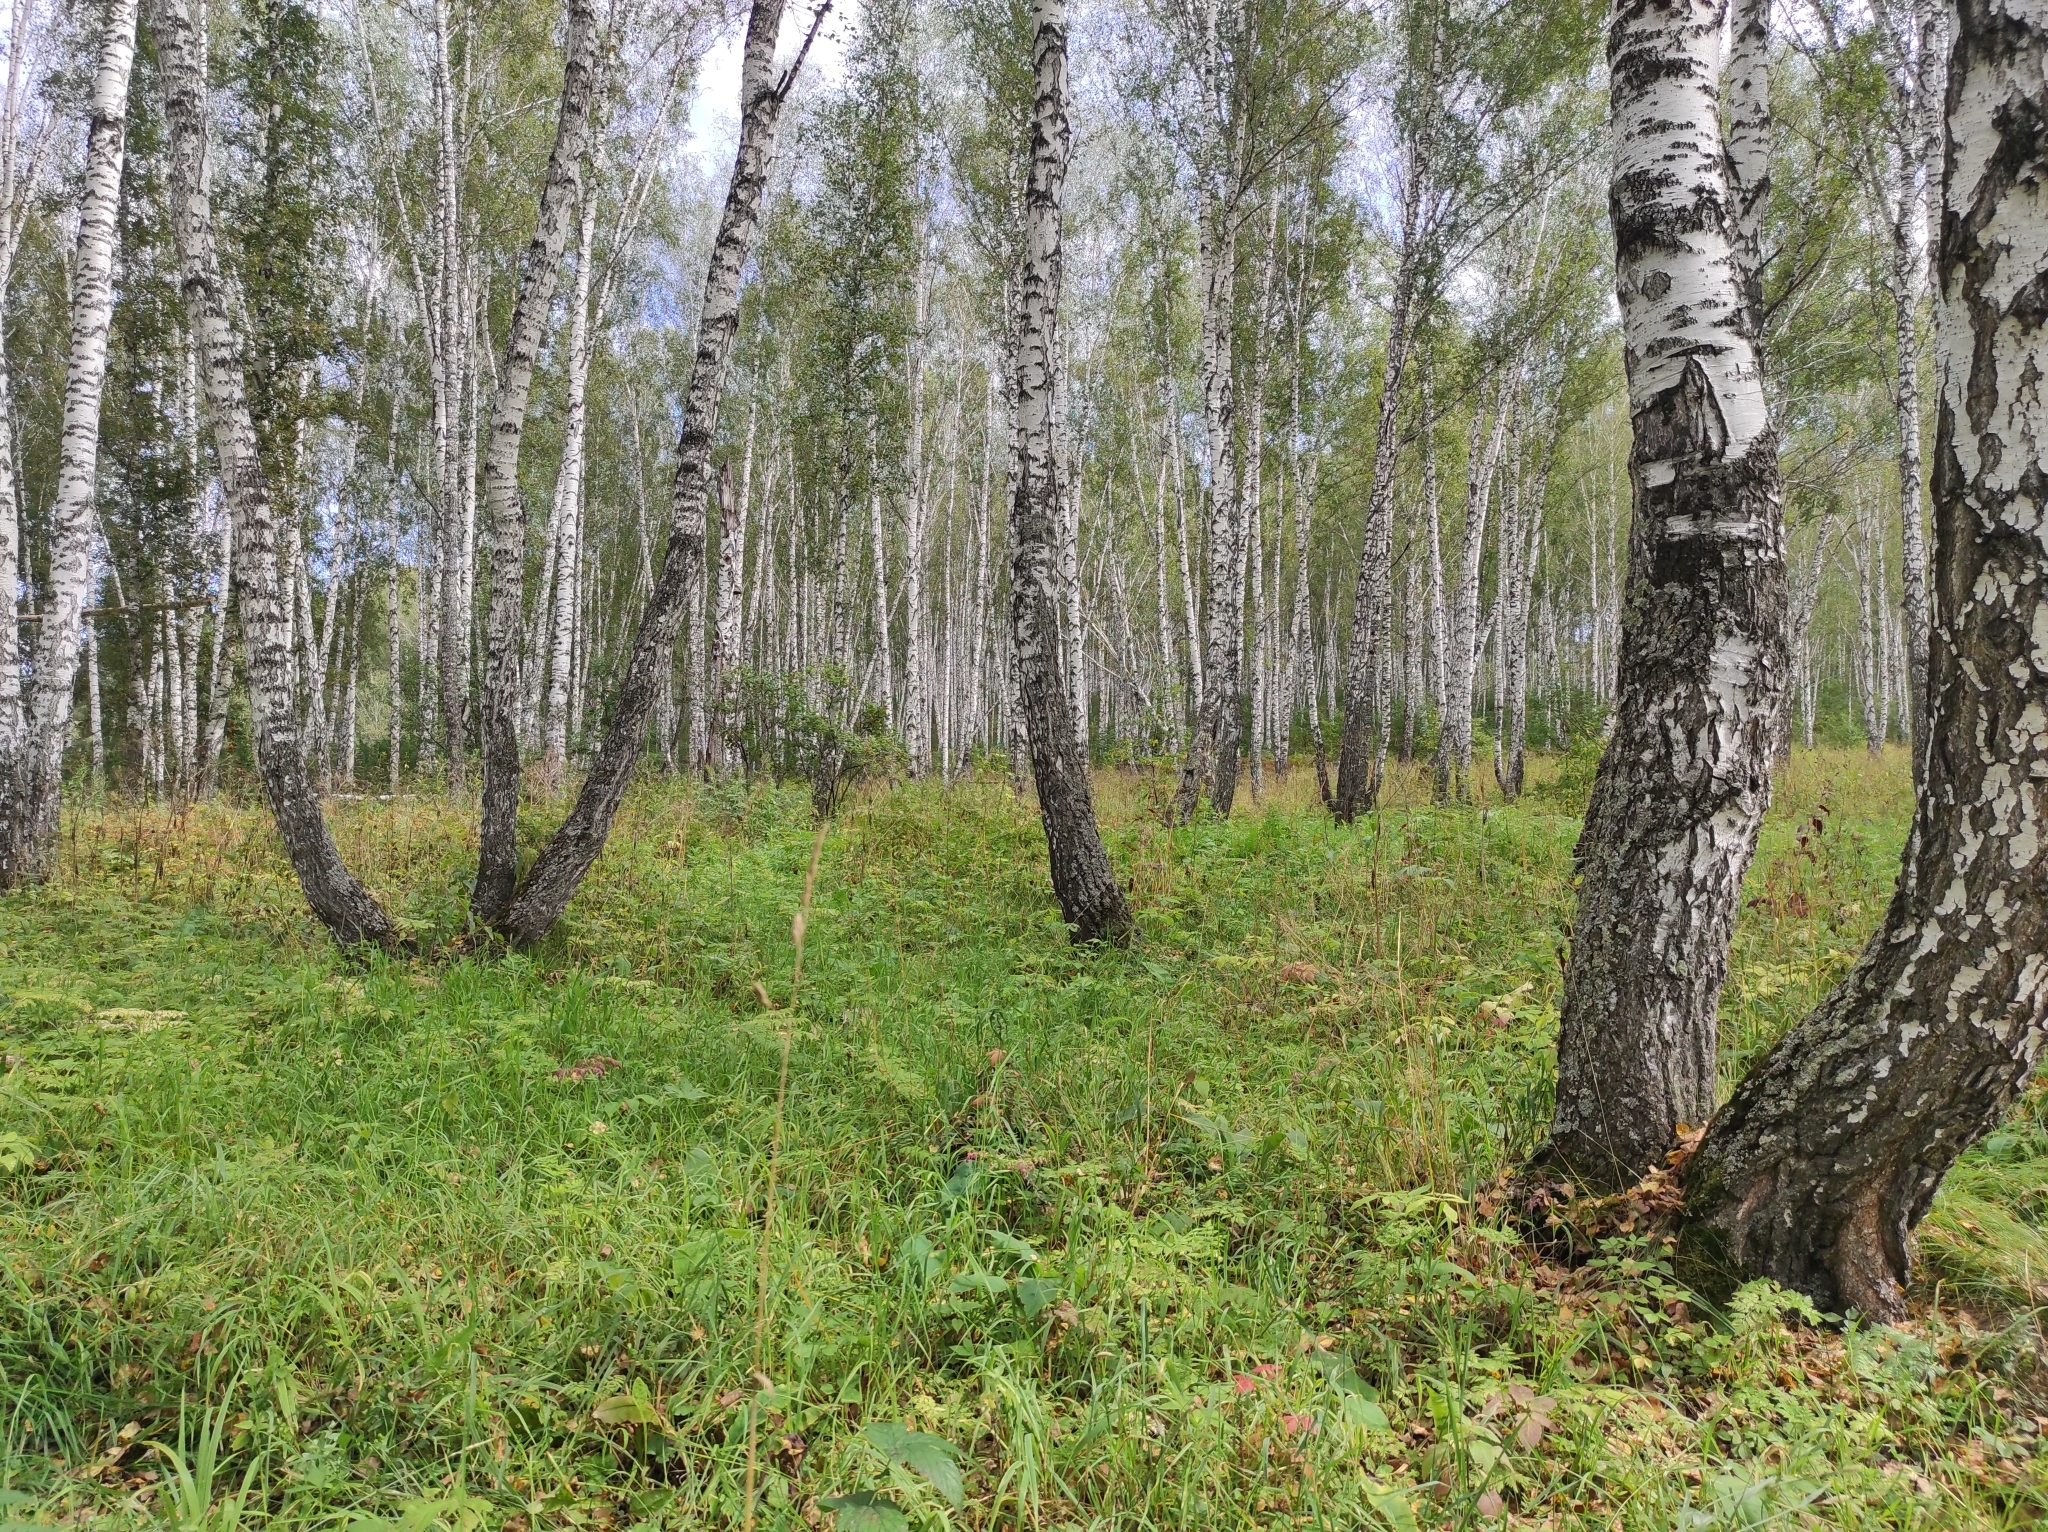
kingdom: Plantae
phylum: Tracheophyta
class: Magnoliopsida
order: Fagales
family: Betulaceae
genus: Betula
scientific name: Betula pendula
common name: Silver birch
